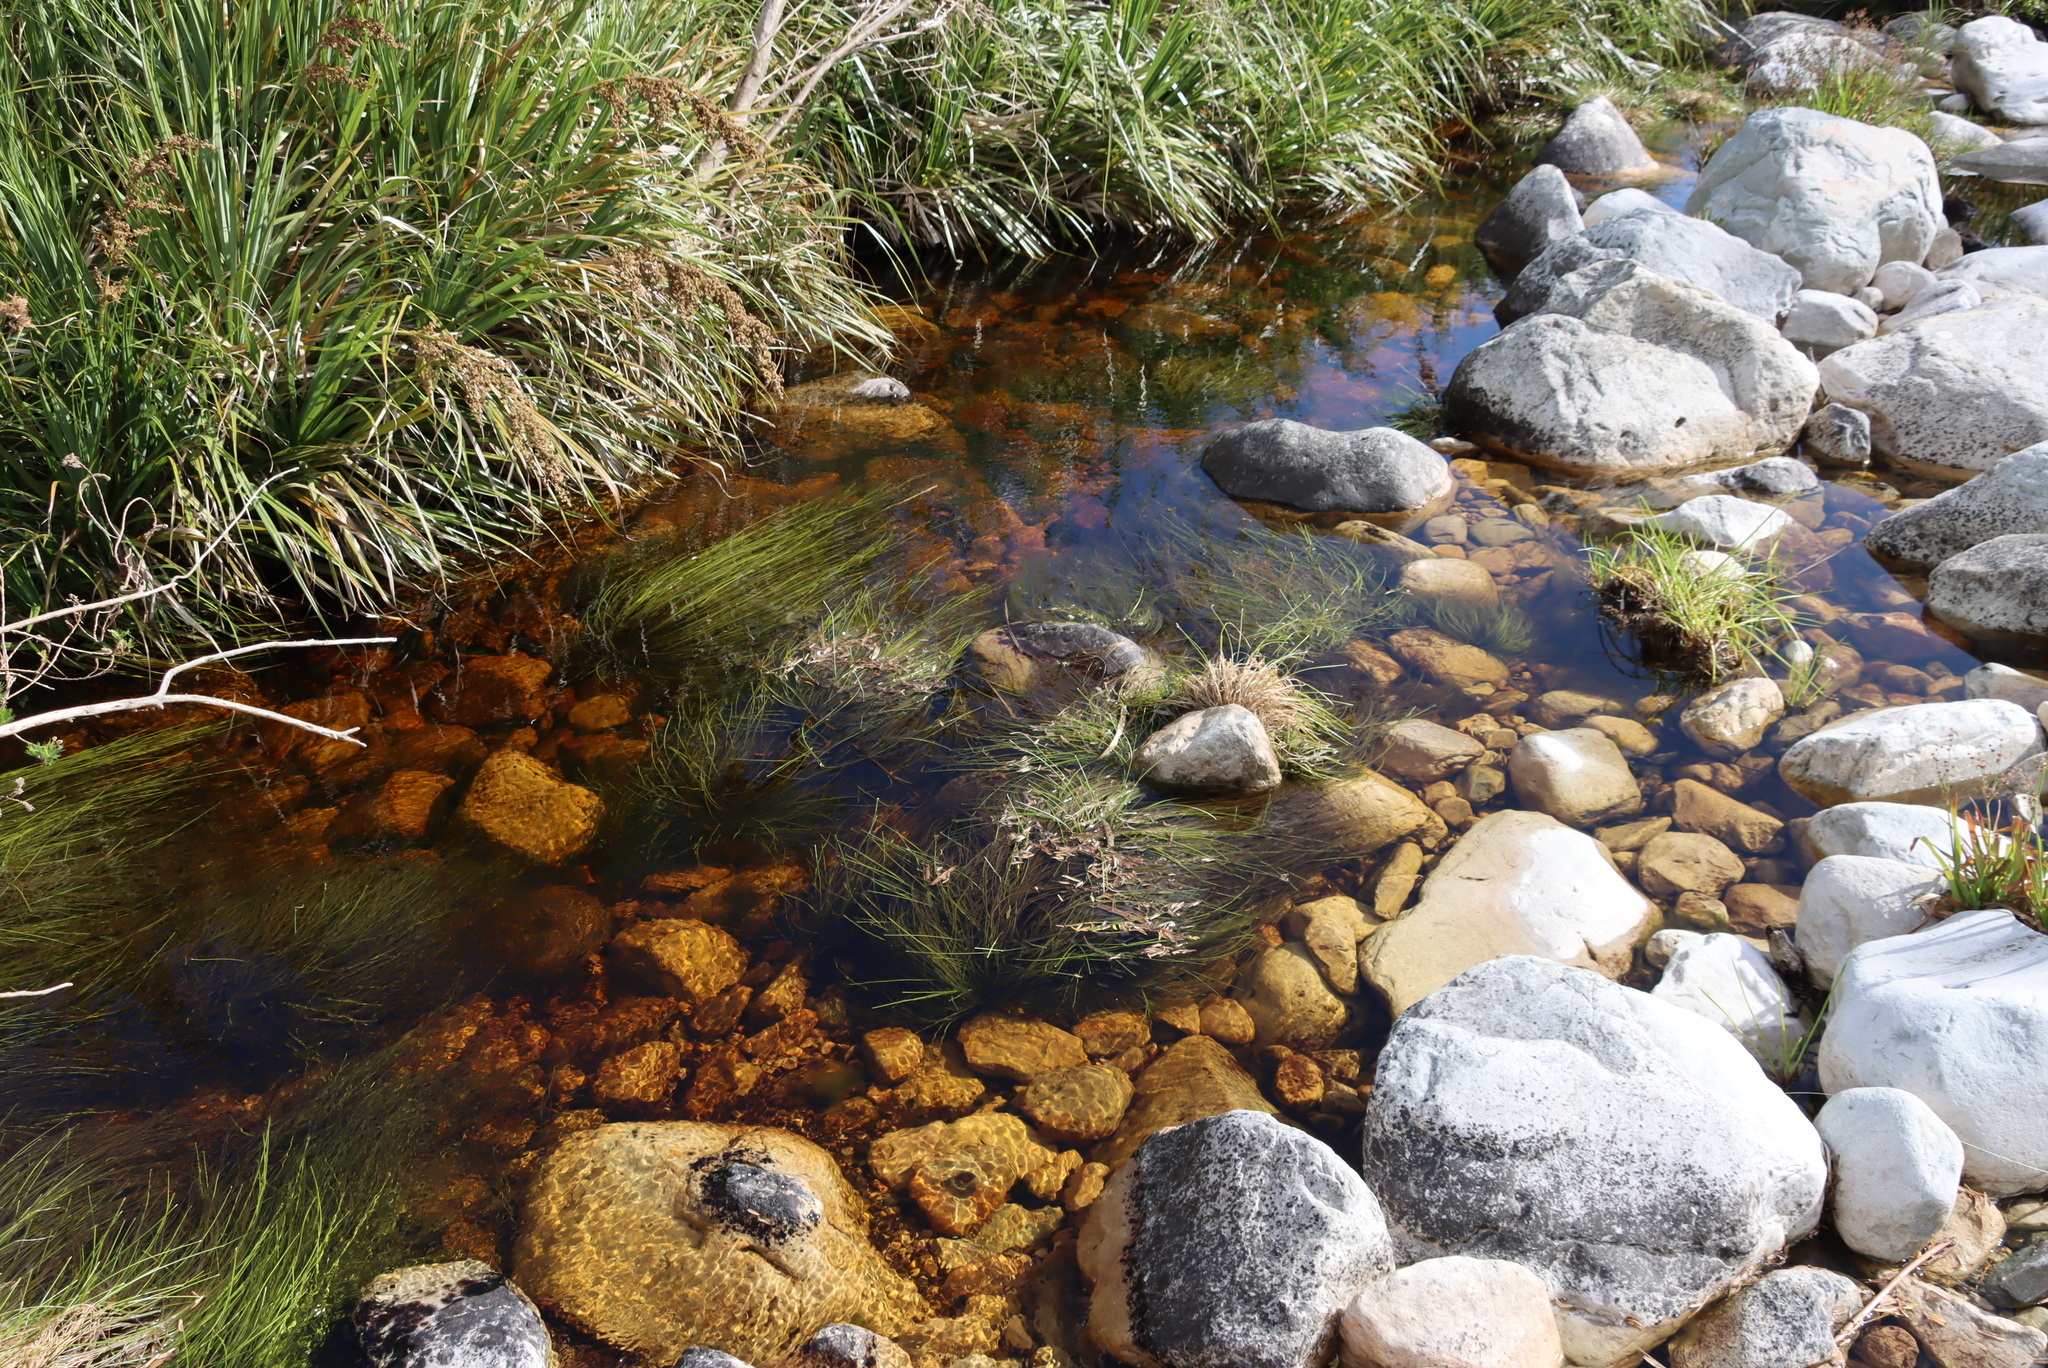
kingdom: Plantae
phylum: Tracheophyta
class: Liliopsida
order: Poales
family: Cyperaceae
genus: Isolepis
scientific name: Isolepis digitata
